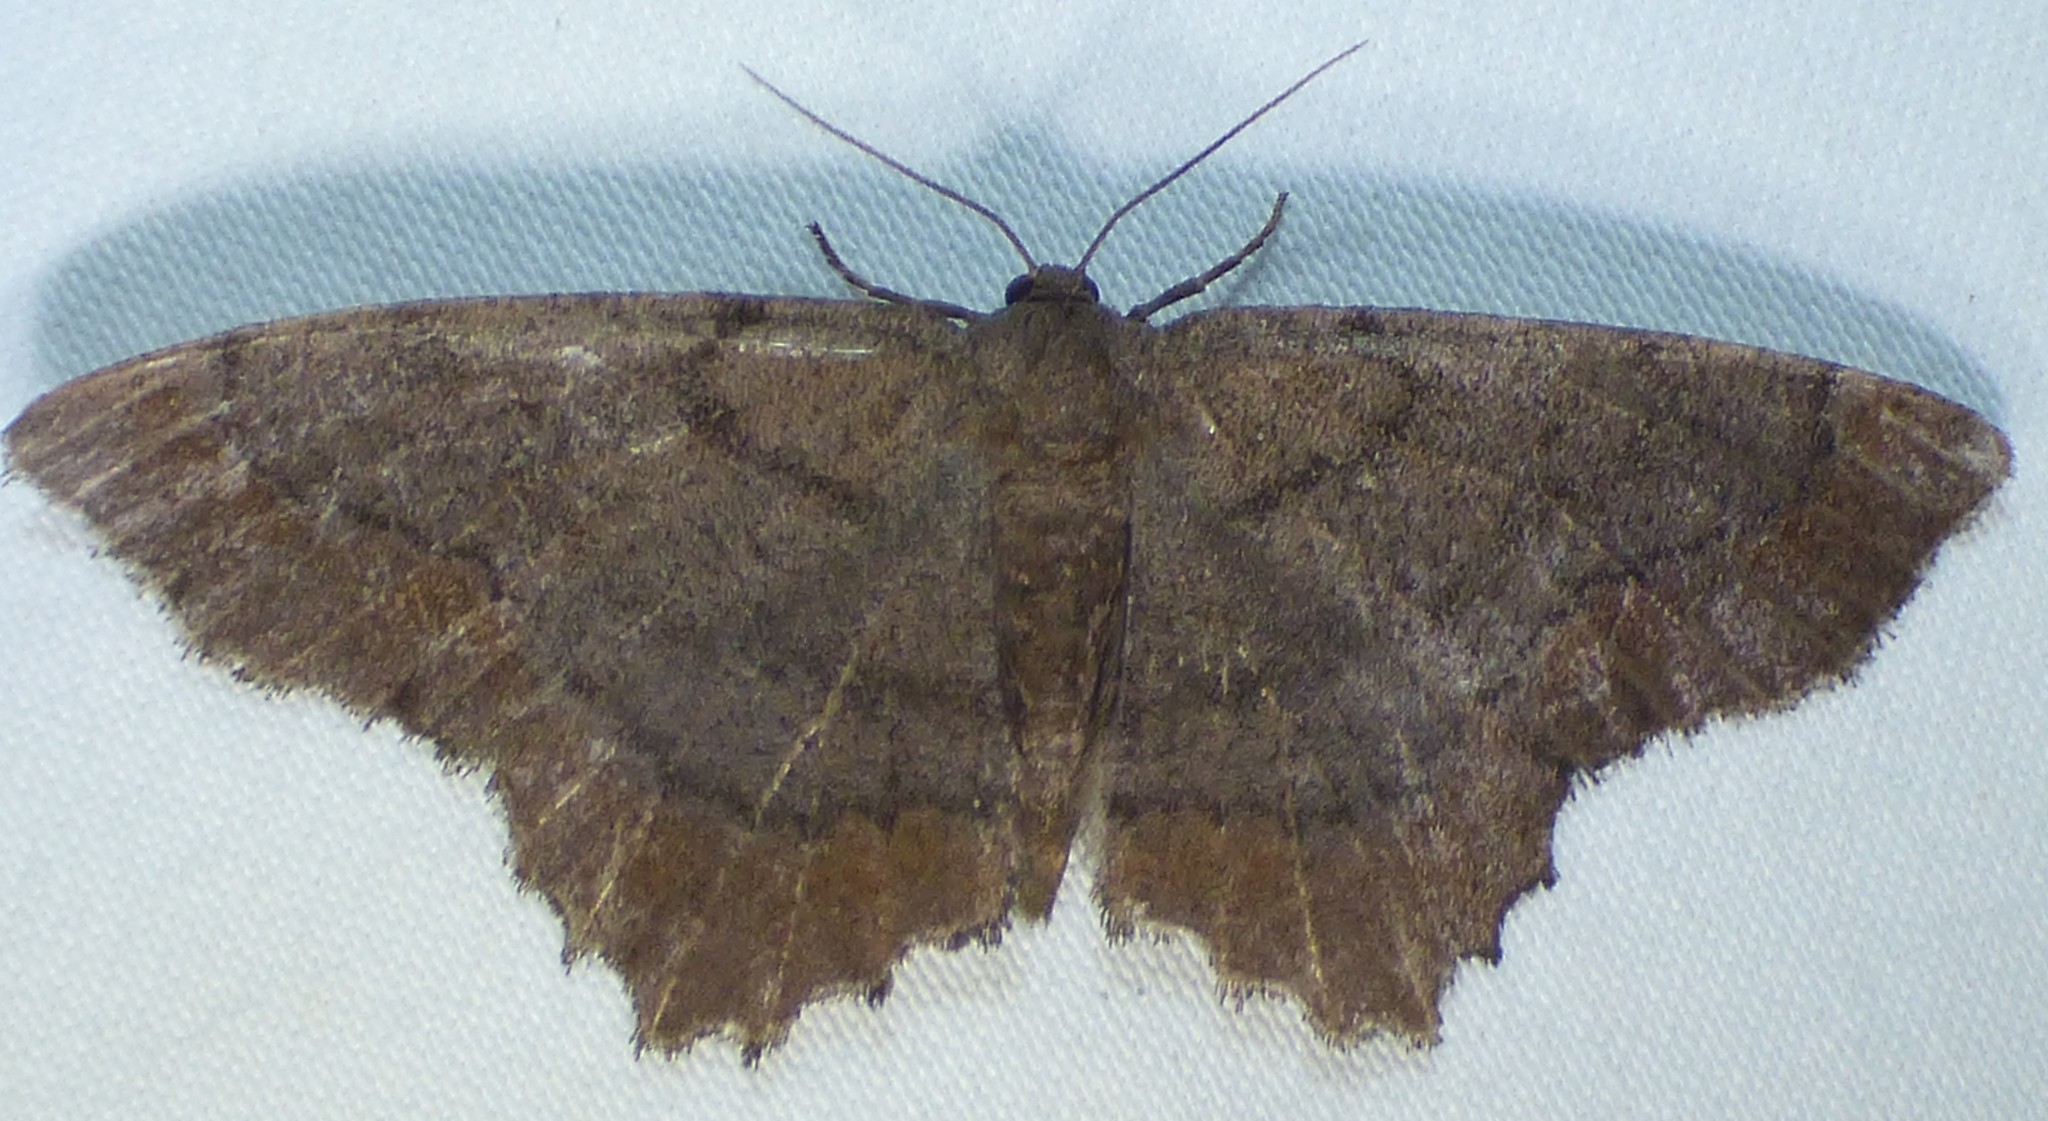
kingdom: Animalia
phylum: Arthropoda
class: Insecta
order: Lepidoptera
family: Geometridae
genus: Hypagyrtis
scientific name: Hypagyrtis esther
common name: Esther moth
